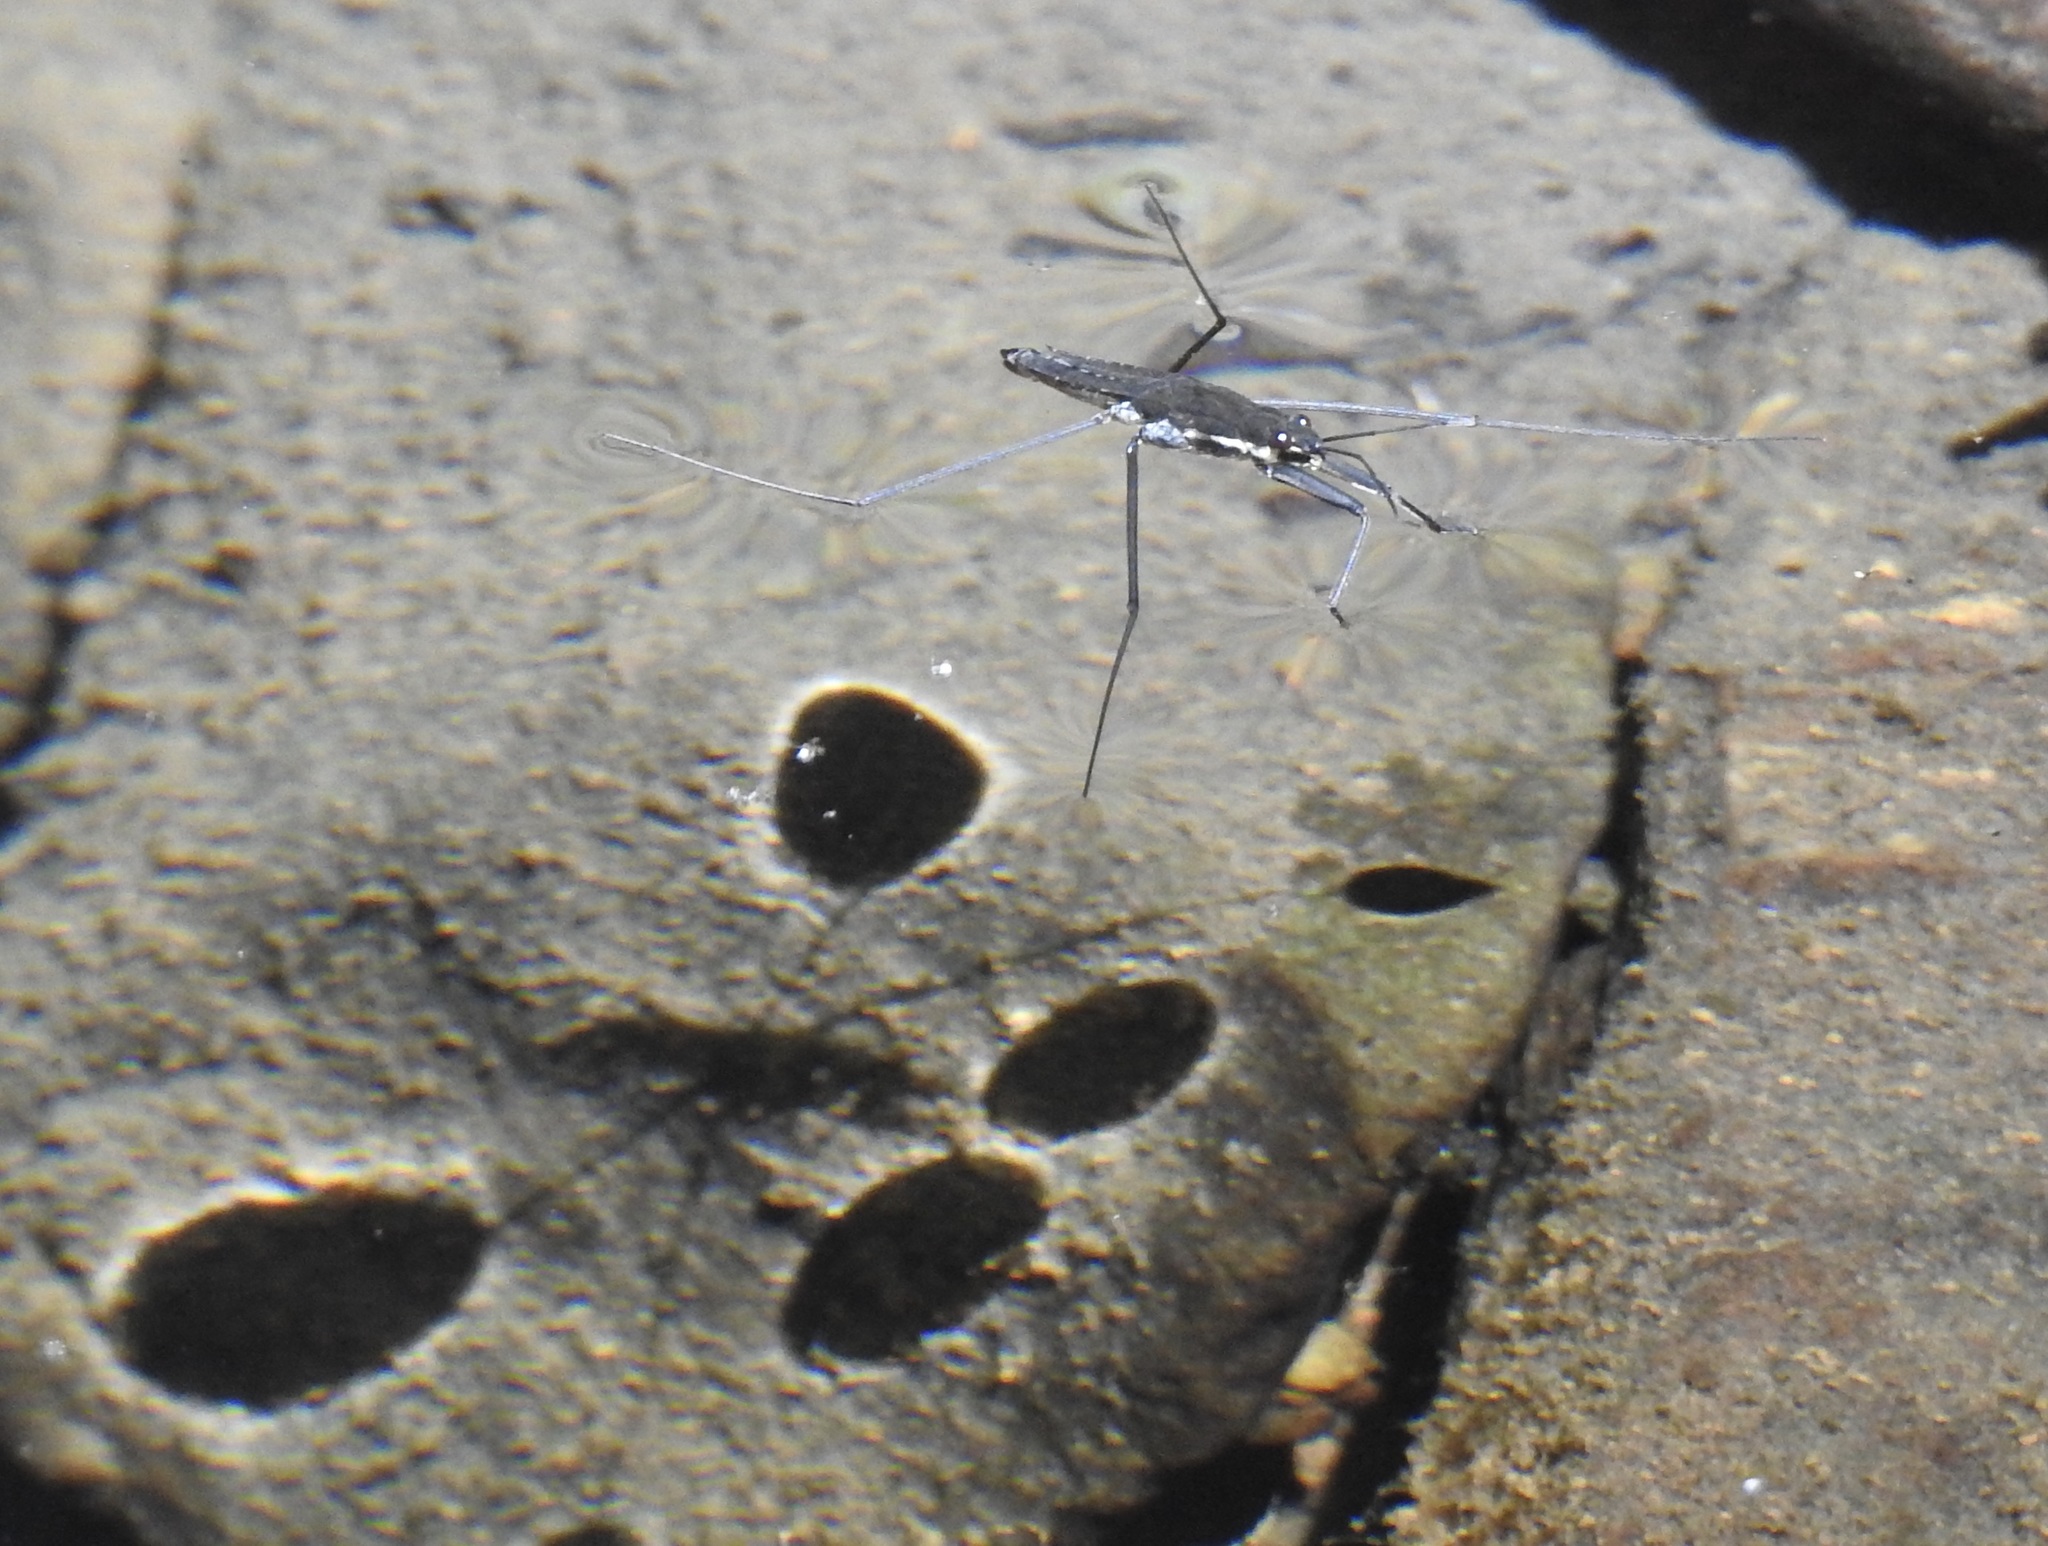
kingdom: Animalia
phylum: Arthropoda
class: Insecta
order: Hemiptera
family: Gerridae
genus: Aquarius
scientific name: Aquarius remigis
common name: Common water strider
